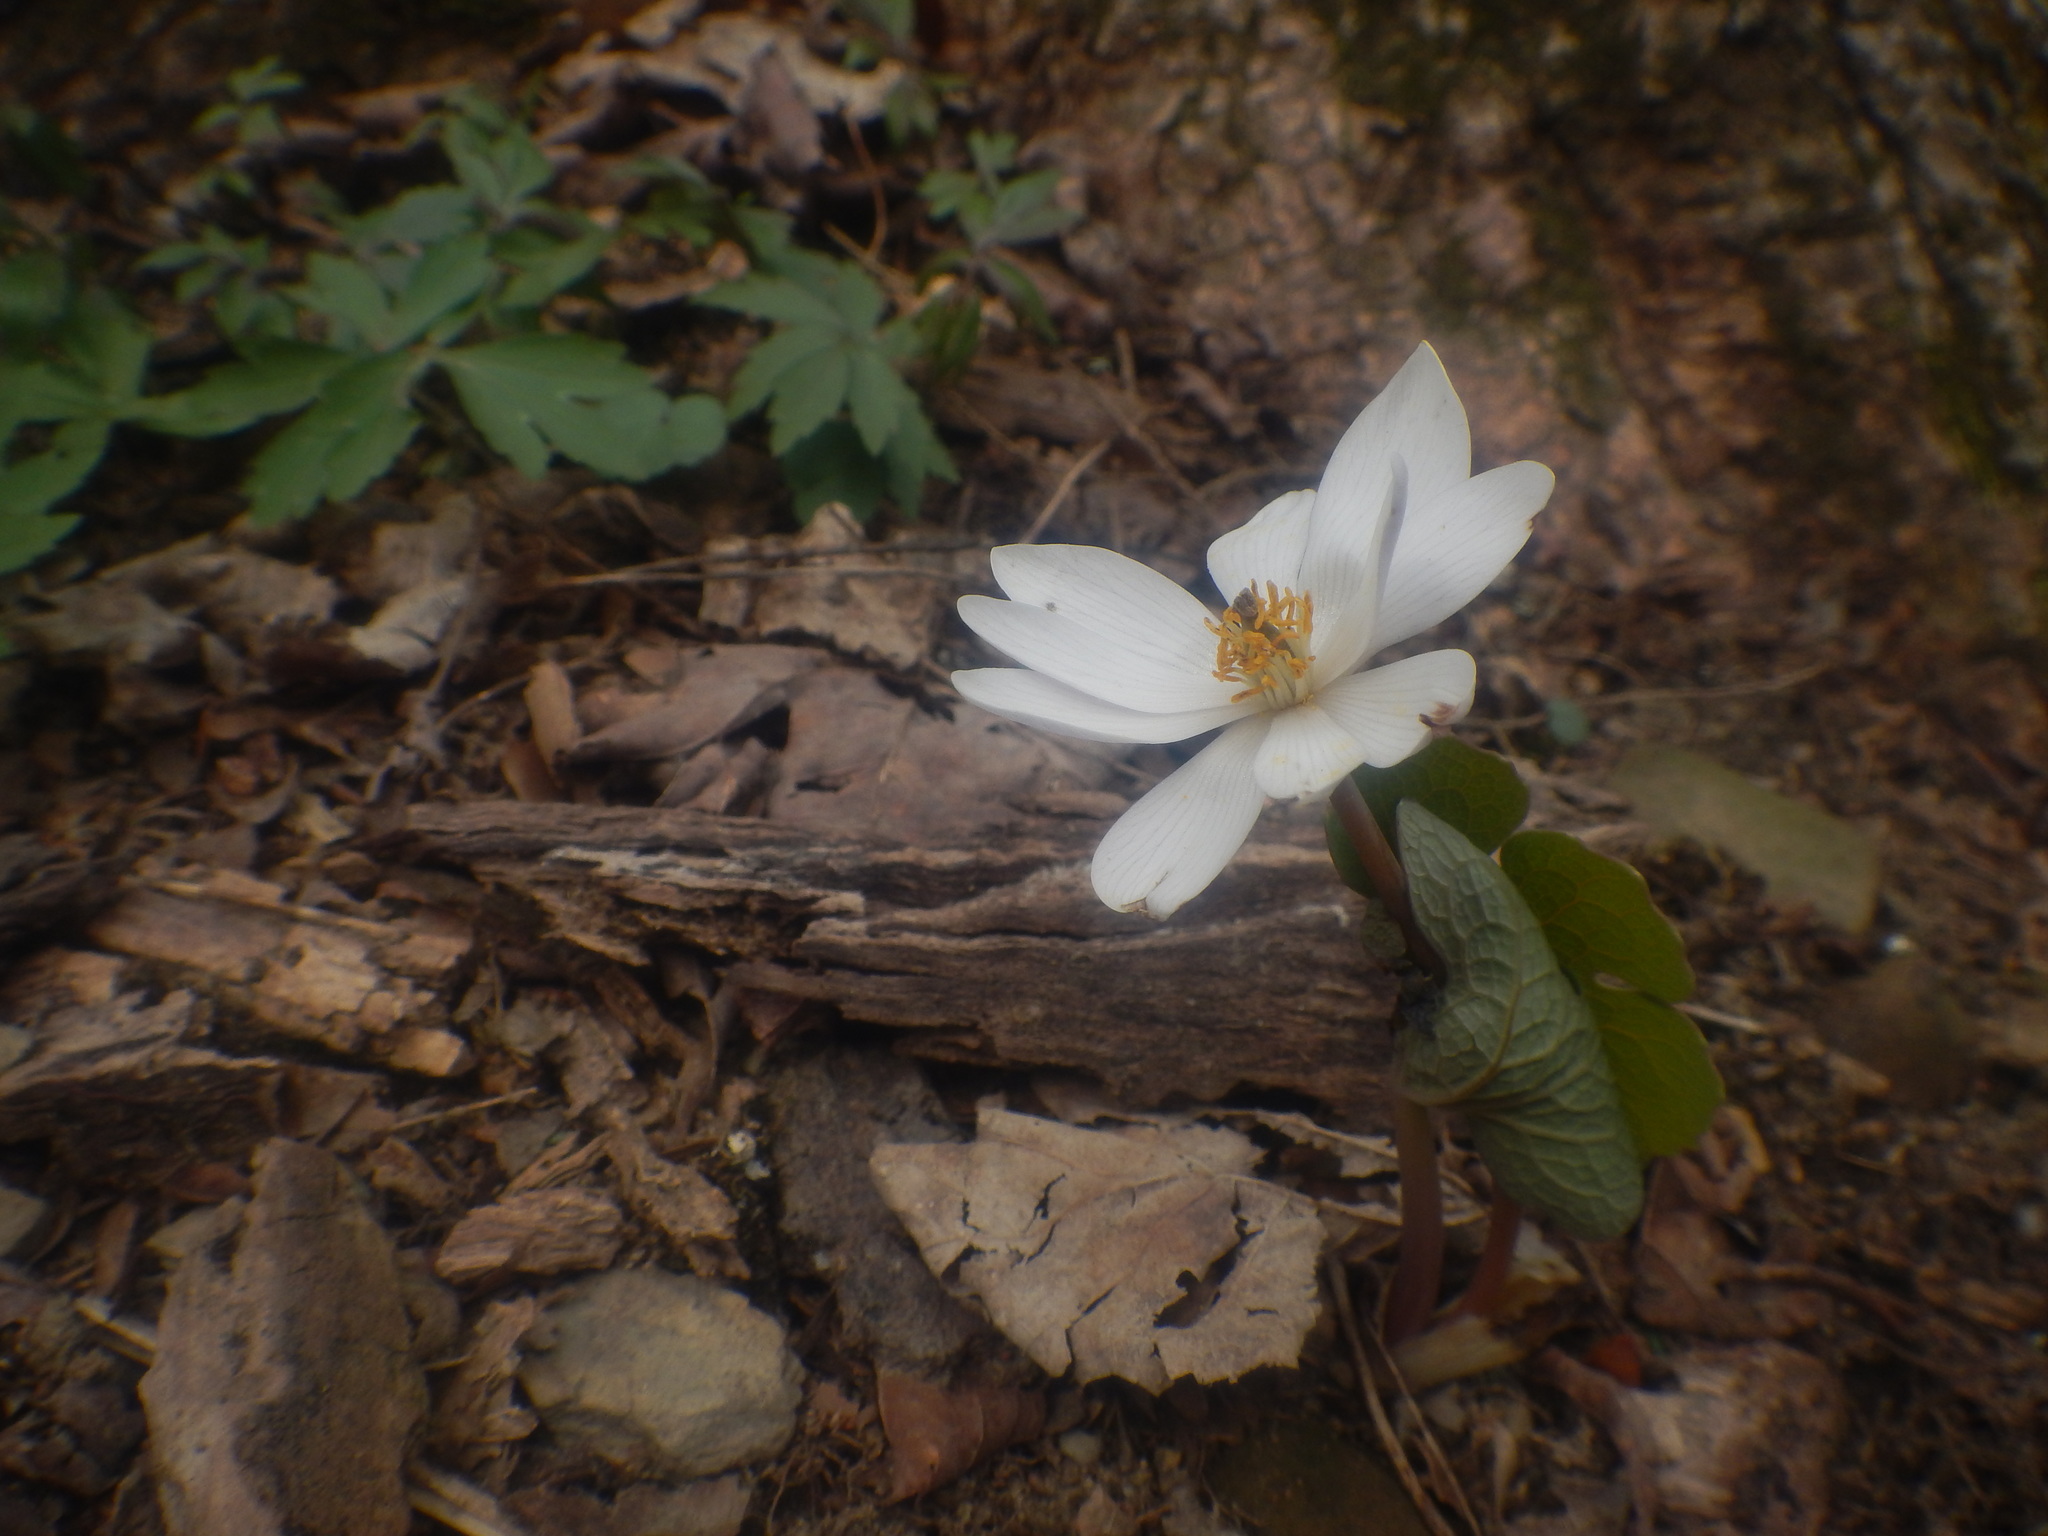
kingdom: Plantae
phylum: Tracheophyta
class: Magnoliopsida
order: Ranunculales
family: Papaveraceae
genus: Sanguinaria
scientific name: Sanguinaria canadensis
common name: Bloodroot
